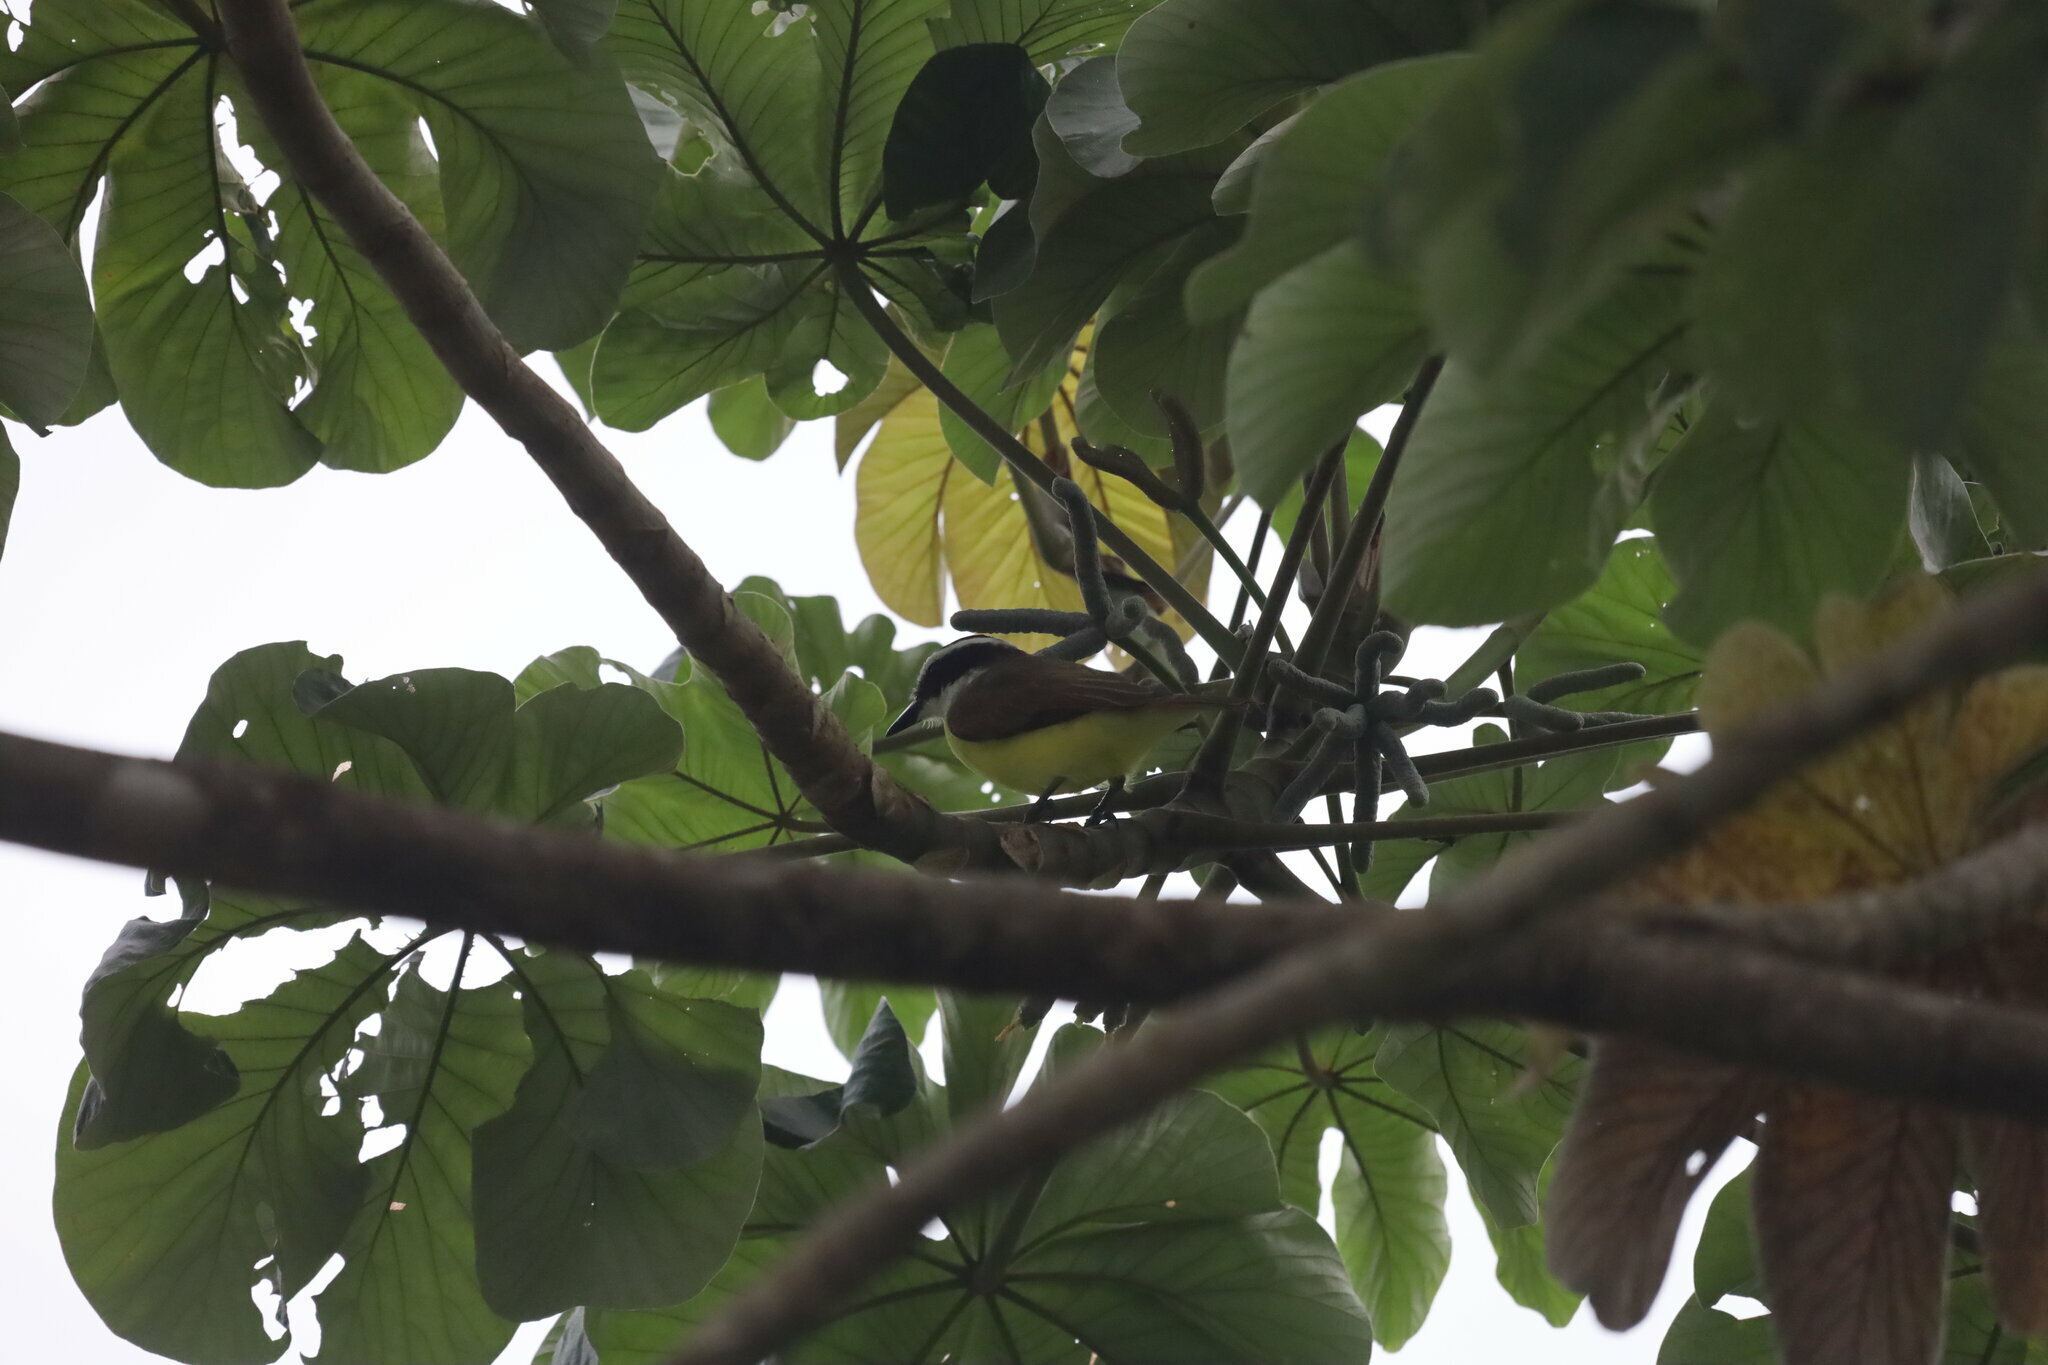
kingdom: Animalia
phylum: Chordata
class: Aves
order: Passeriformes
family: Tyrannidae
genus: Pitangus
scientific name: Pitangus sulphuratus
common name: Great kiskadee
